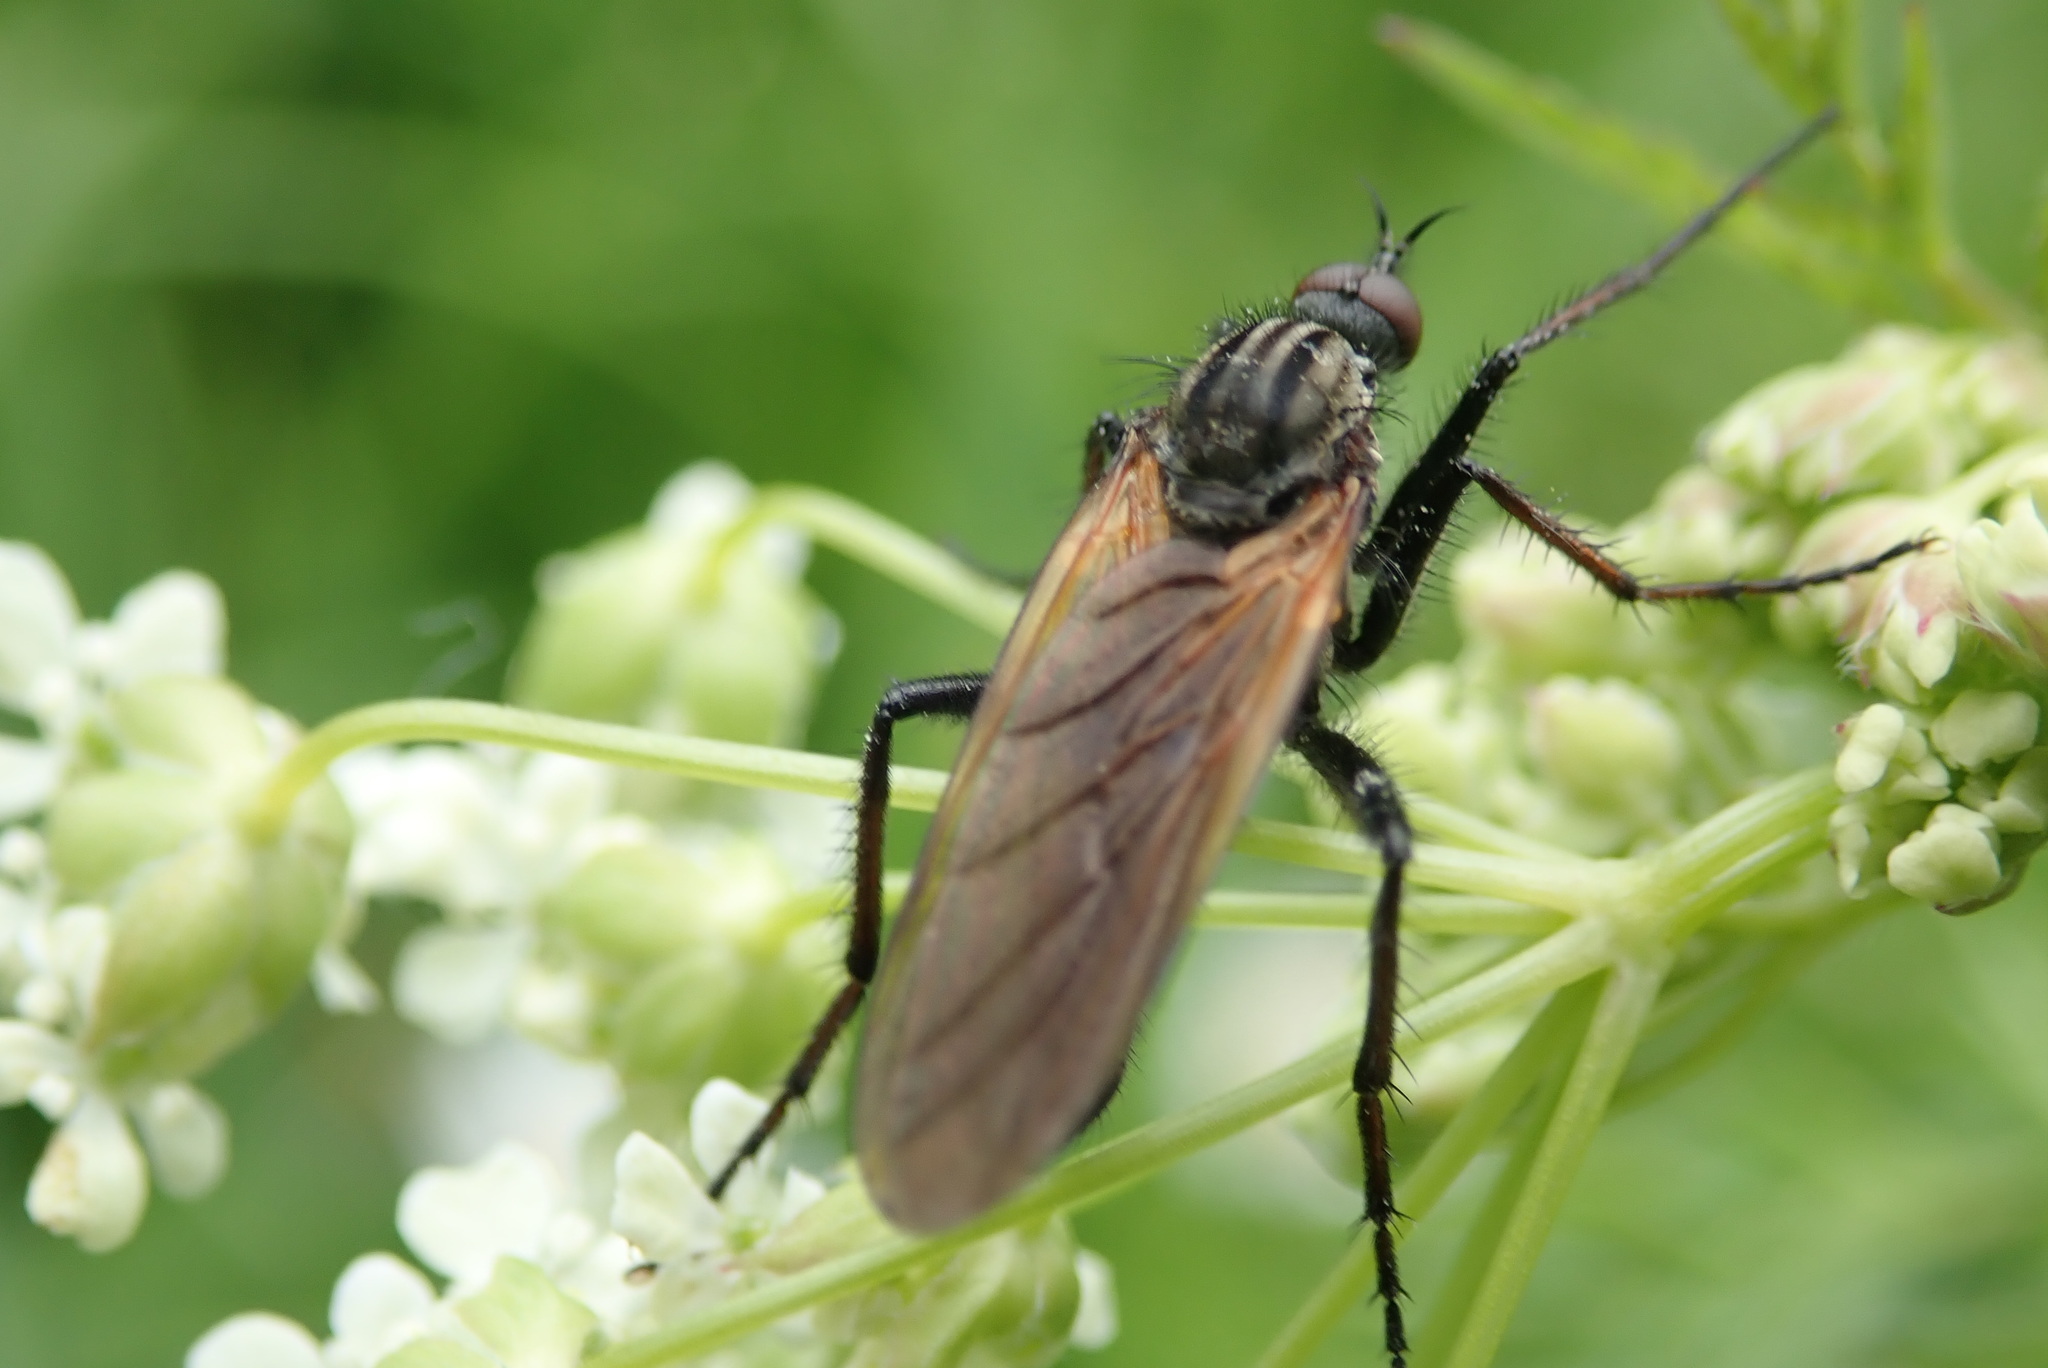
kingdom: Animalia
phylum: Arthropoda
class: Insecta
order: Diptera
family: Empididae
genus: Empis
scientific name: Empis tessellata
